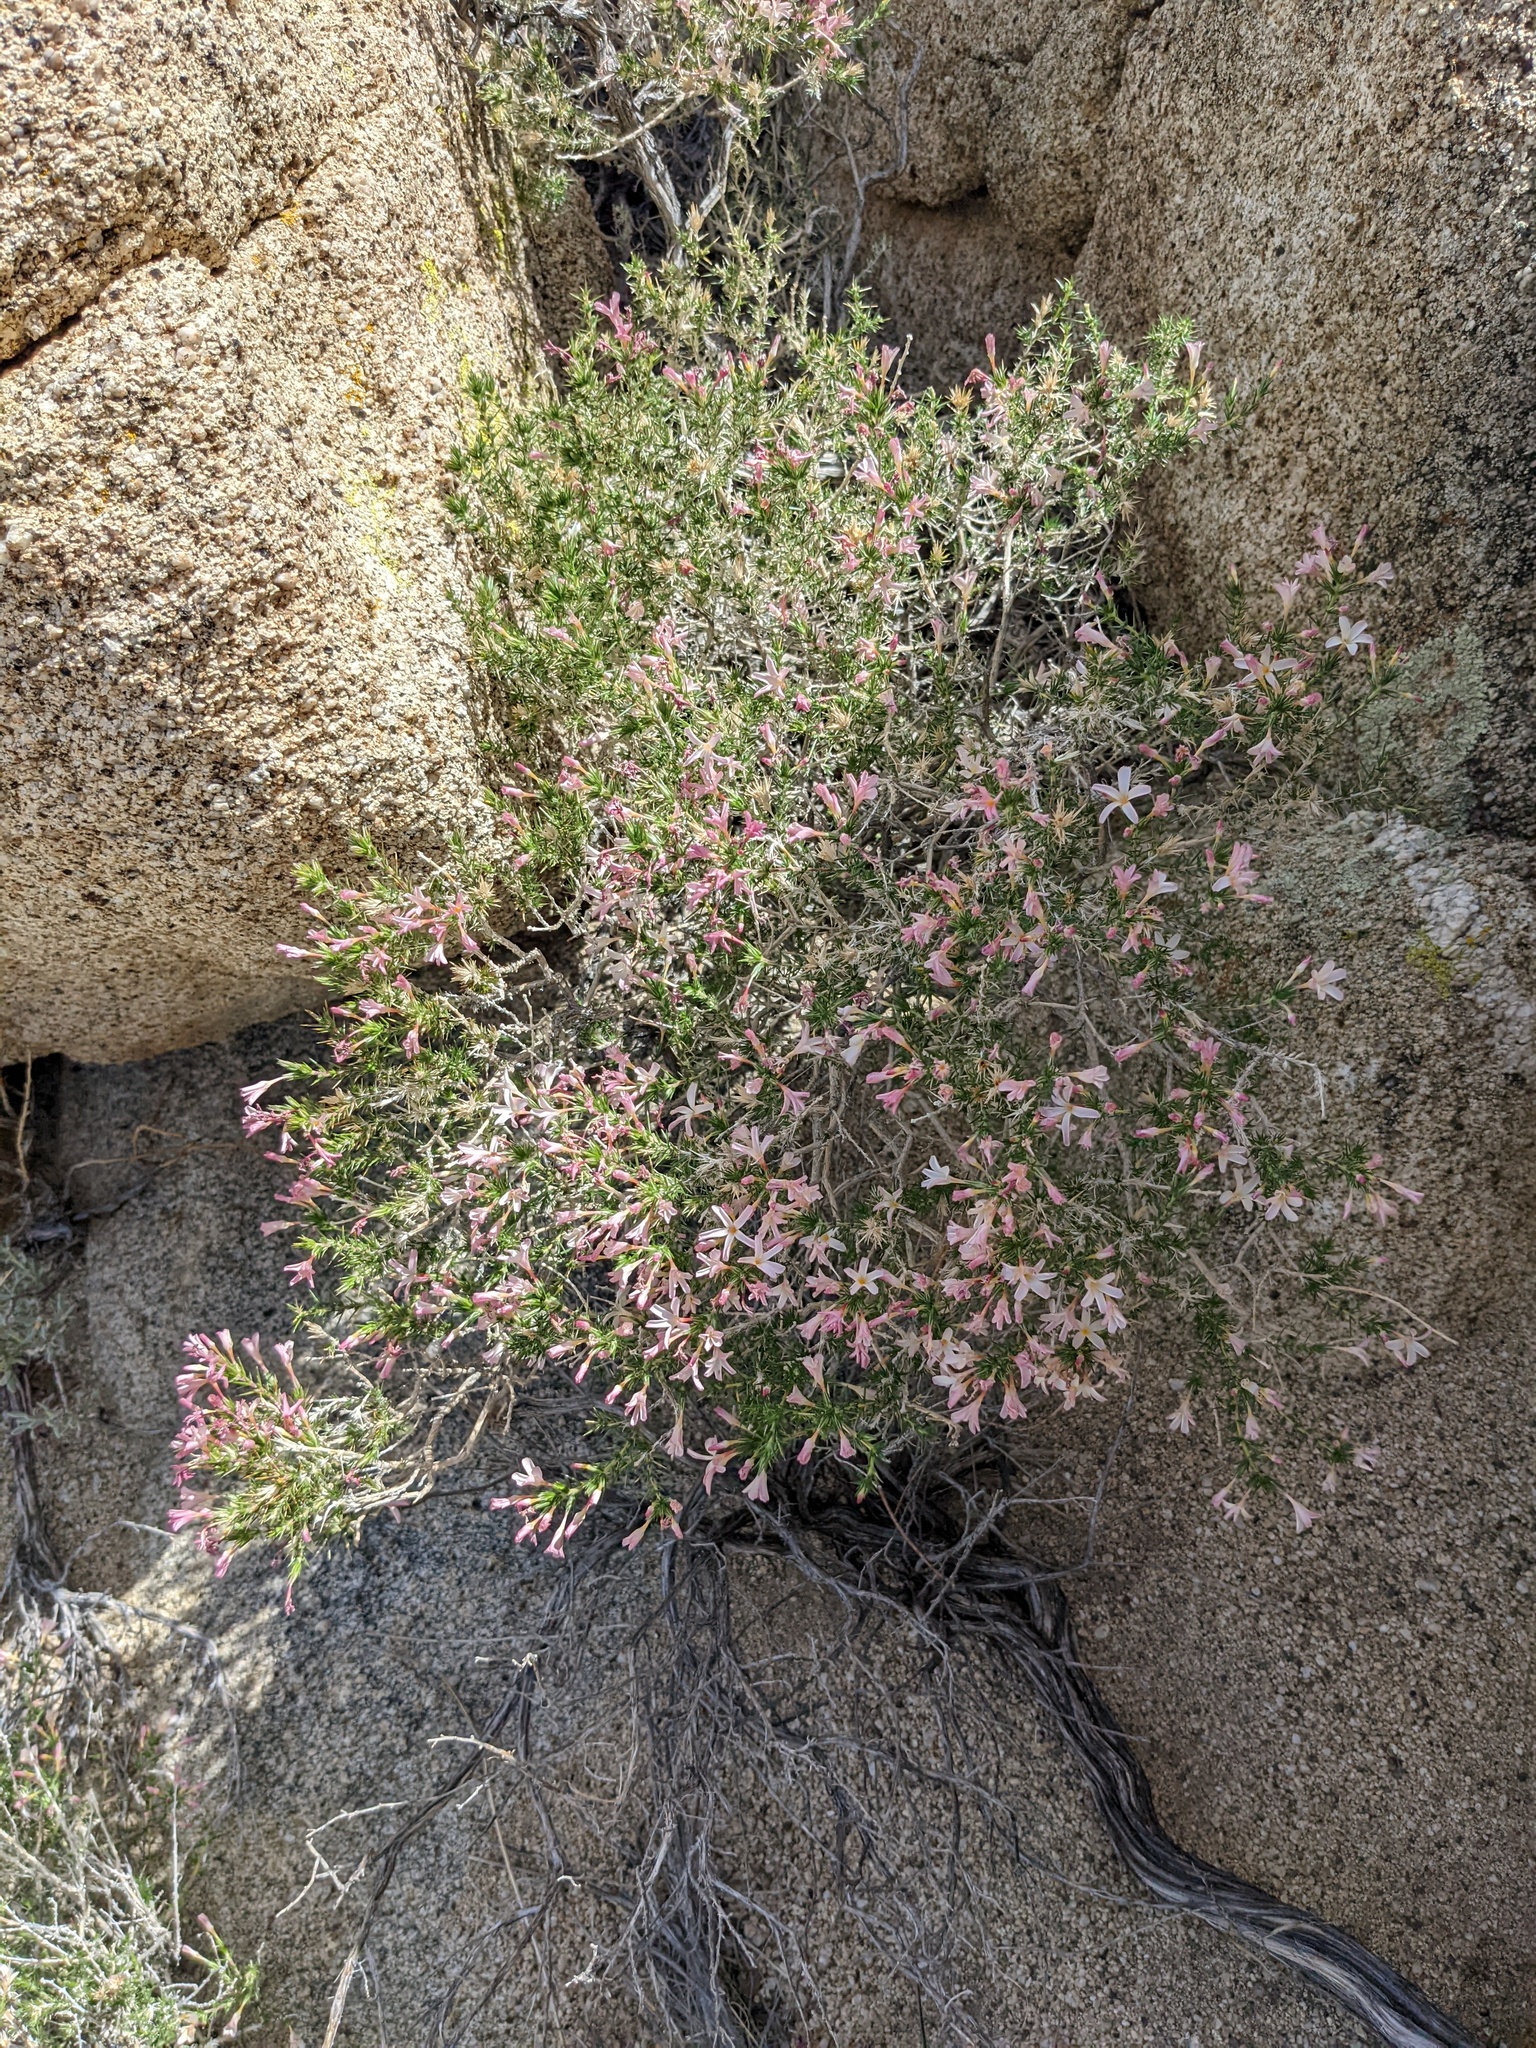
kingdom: Plantae
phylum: Tracheophyta
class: Magnoliopsida
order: Ericales
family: Polemoniaceae
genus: Linanthus
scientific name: Linanthus pungens
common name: Granite prickly phlox
